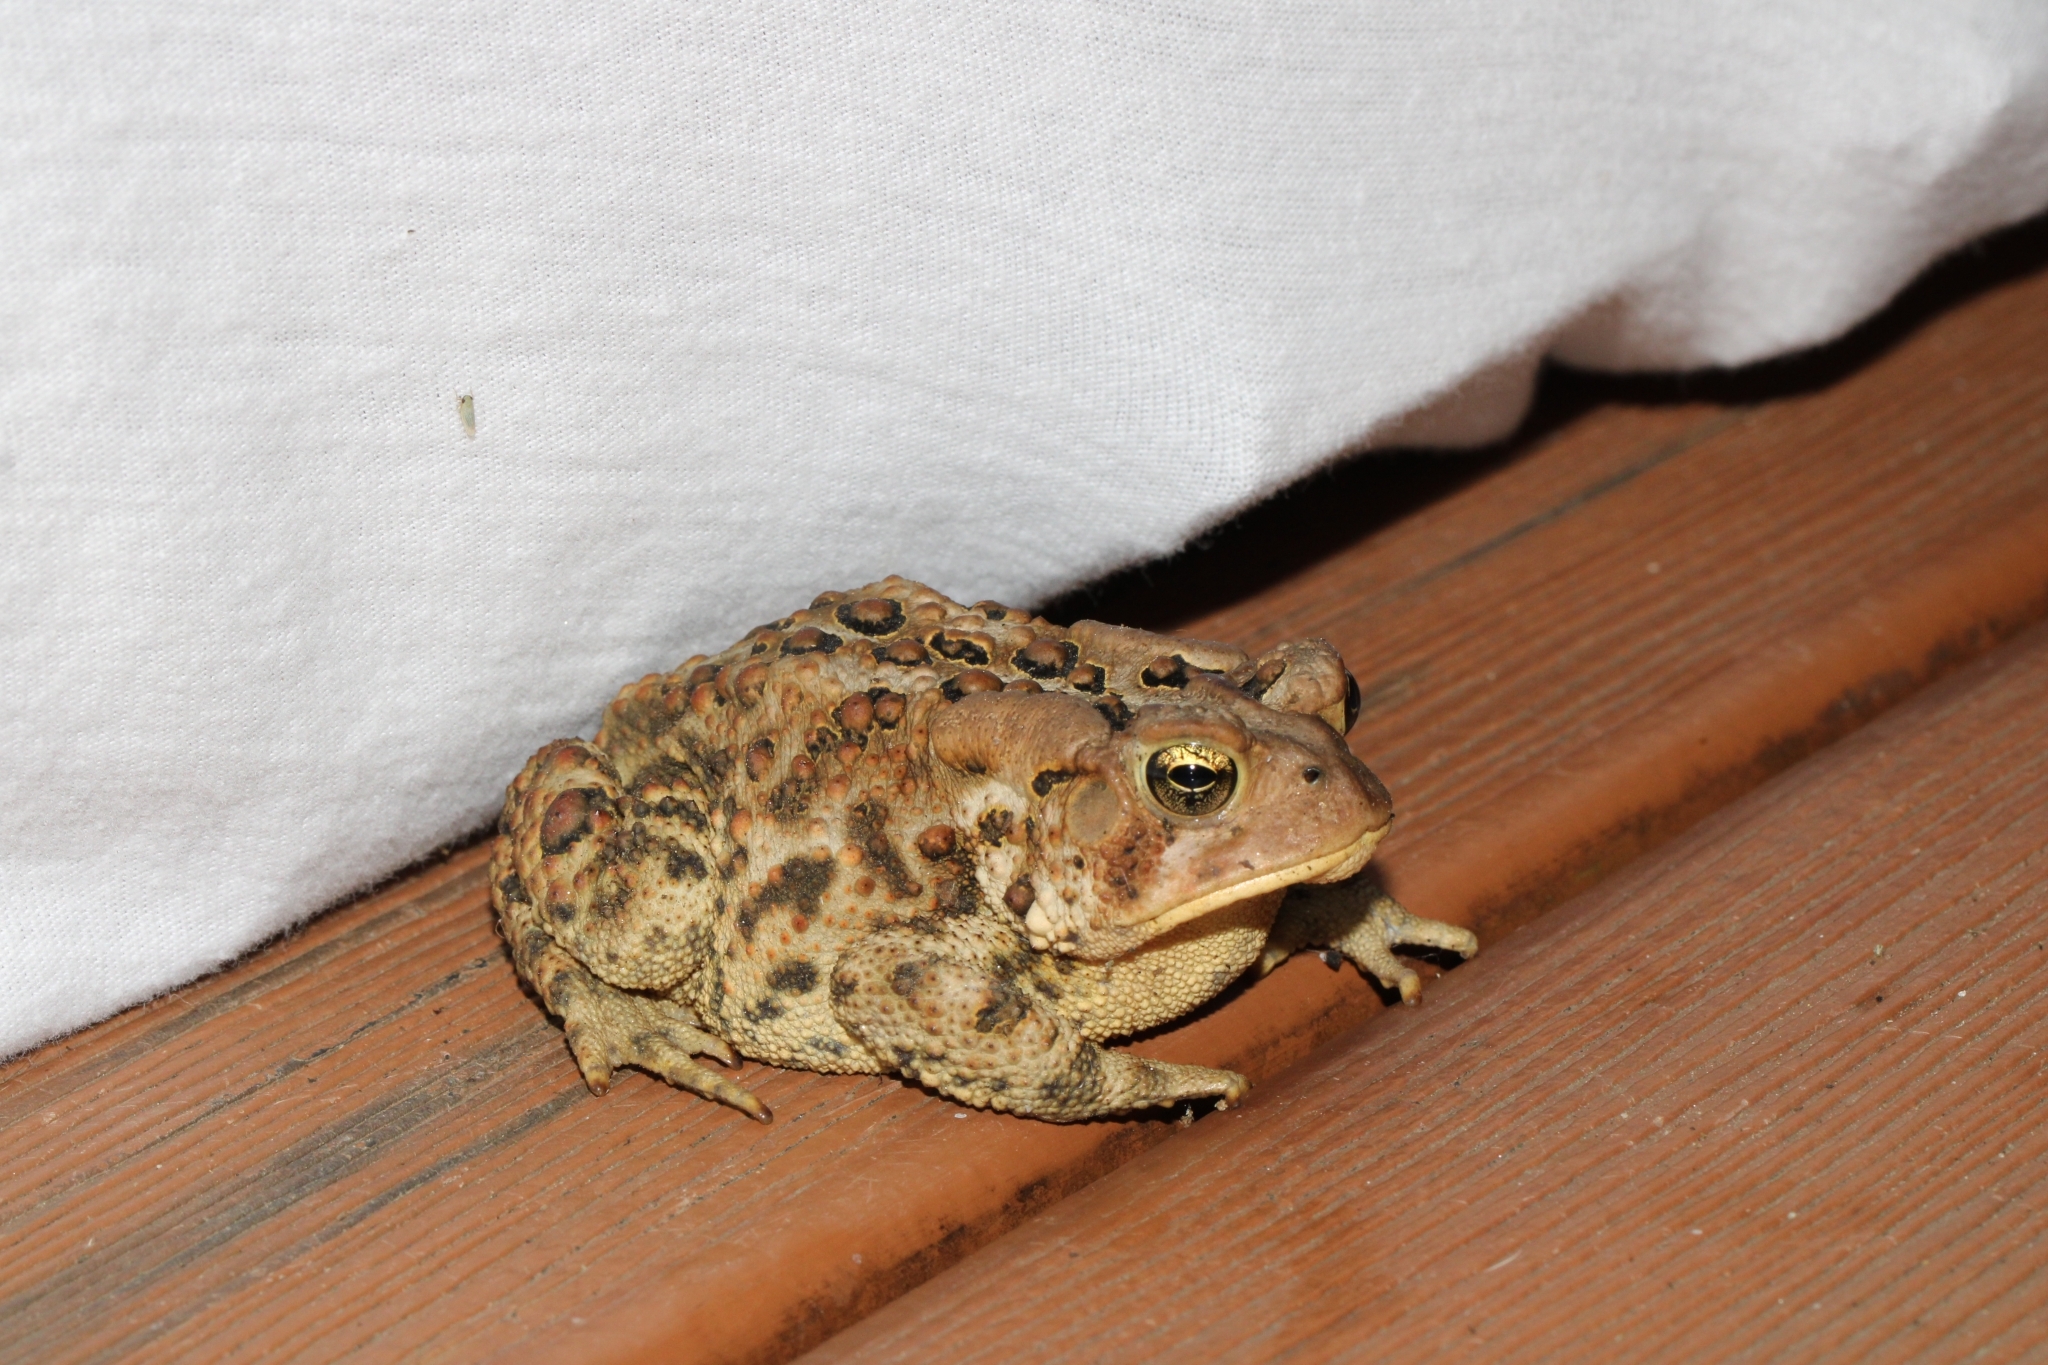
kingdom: Animalia
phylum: Chordata
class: Amphibia
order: Anura
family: Bufonidae
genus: Anaxyrus
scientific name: Anaxyrus americanus
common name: American toad
